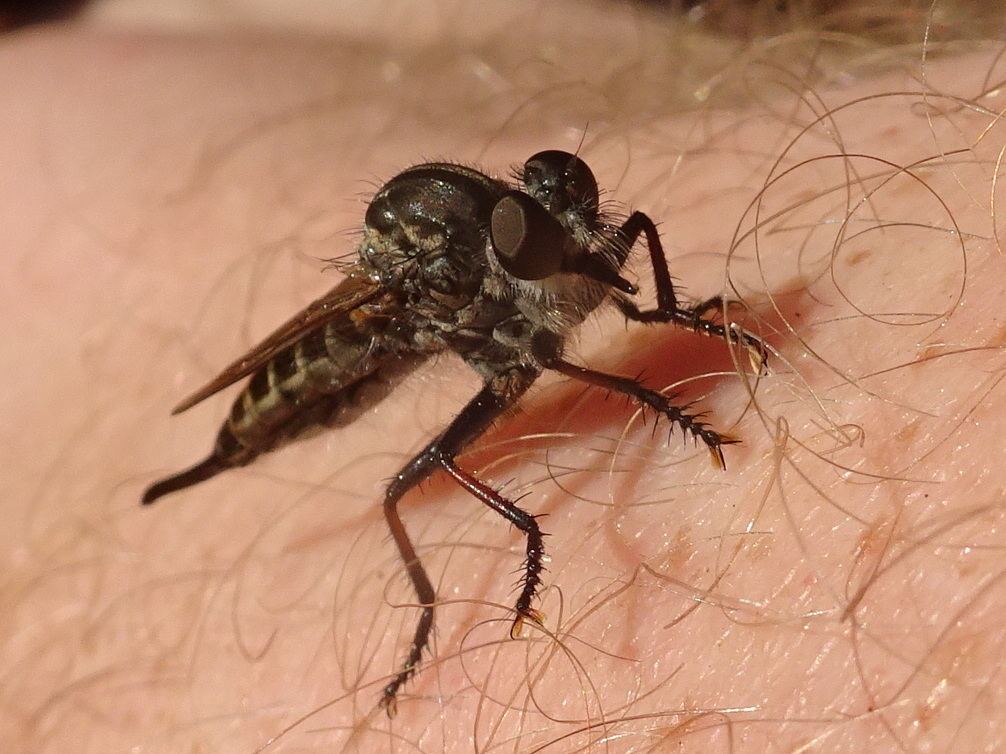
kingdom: Animalia
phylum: Arthropoda
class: Insecta
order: Diptera
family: Asilidae
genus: Efferia
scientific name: Efferia aestuans
